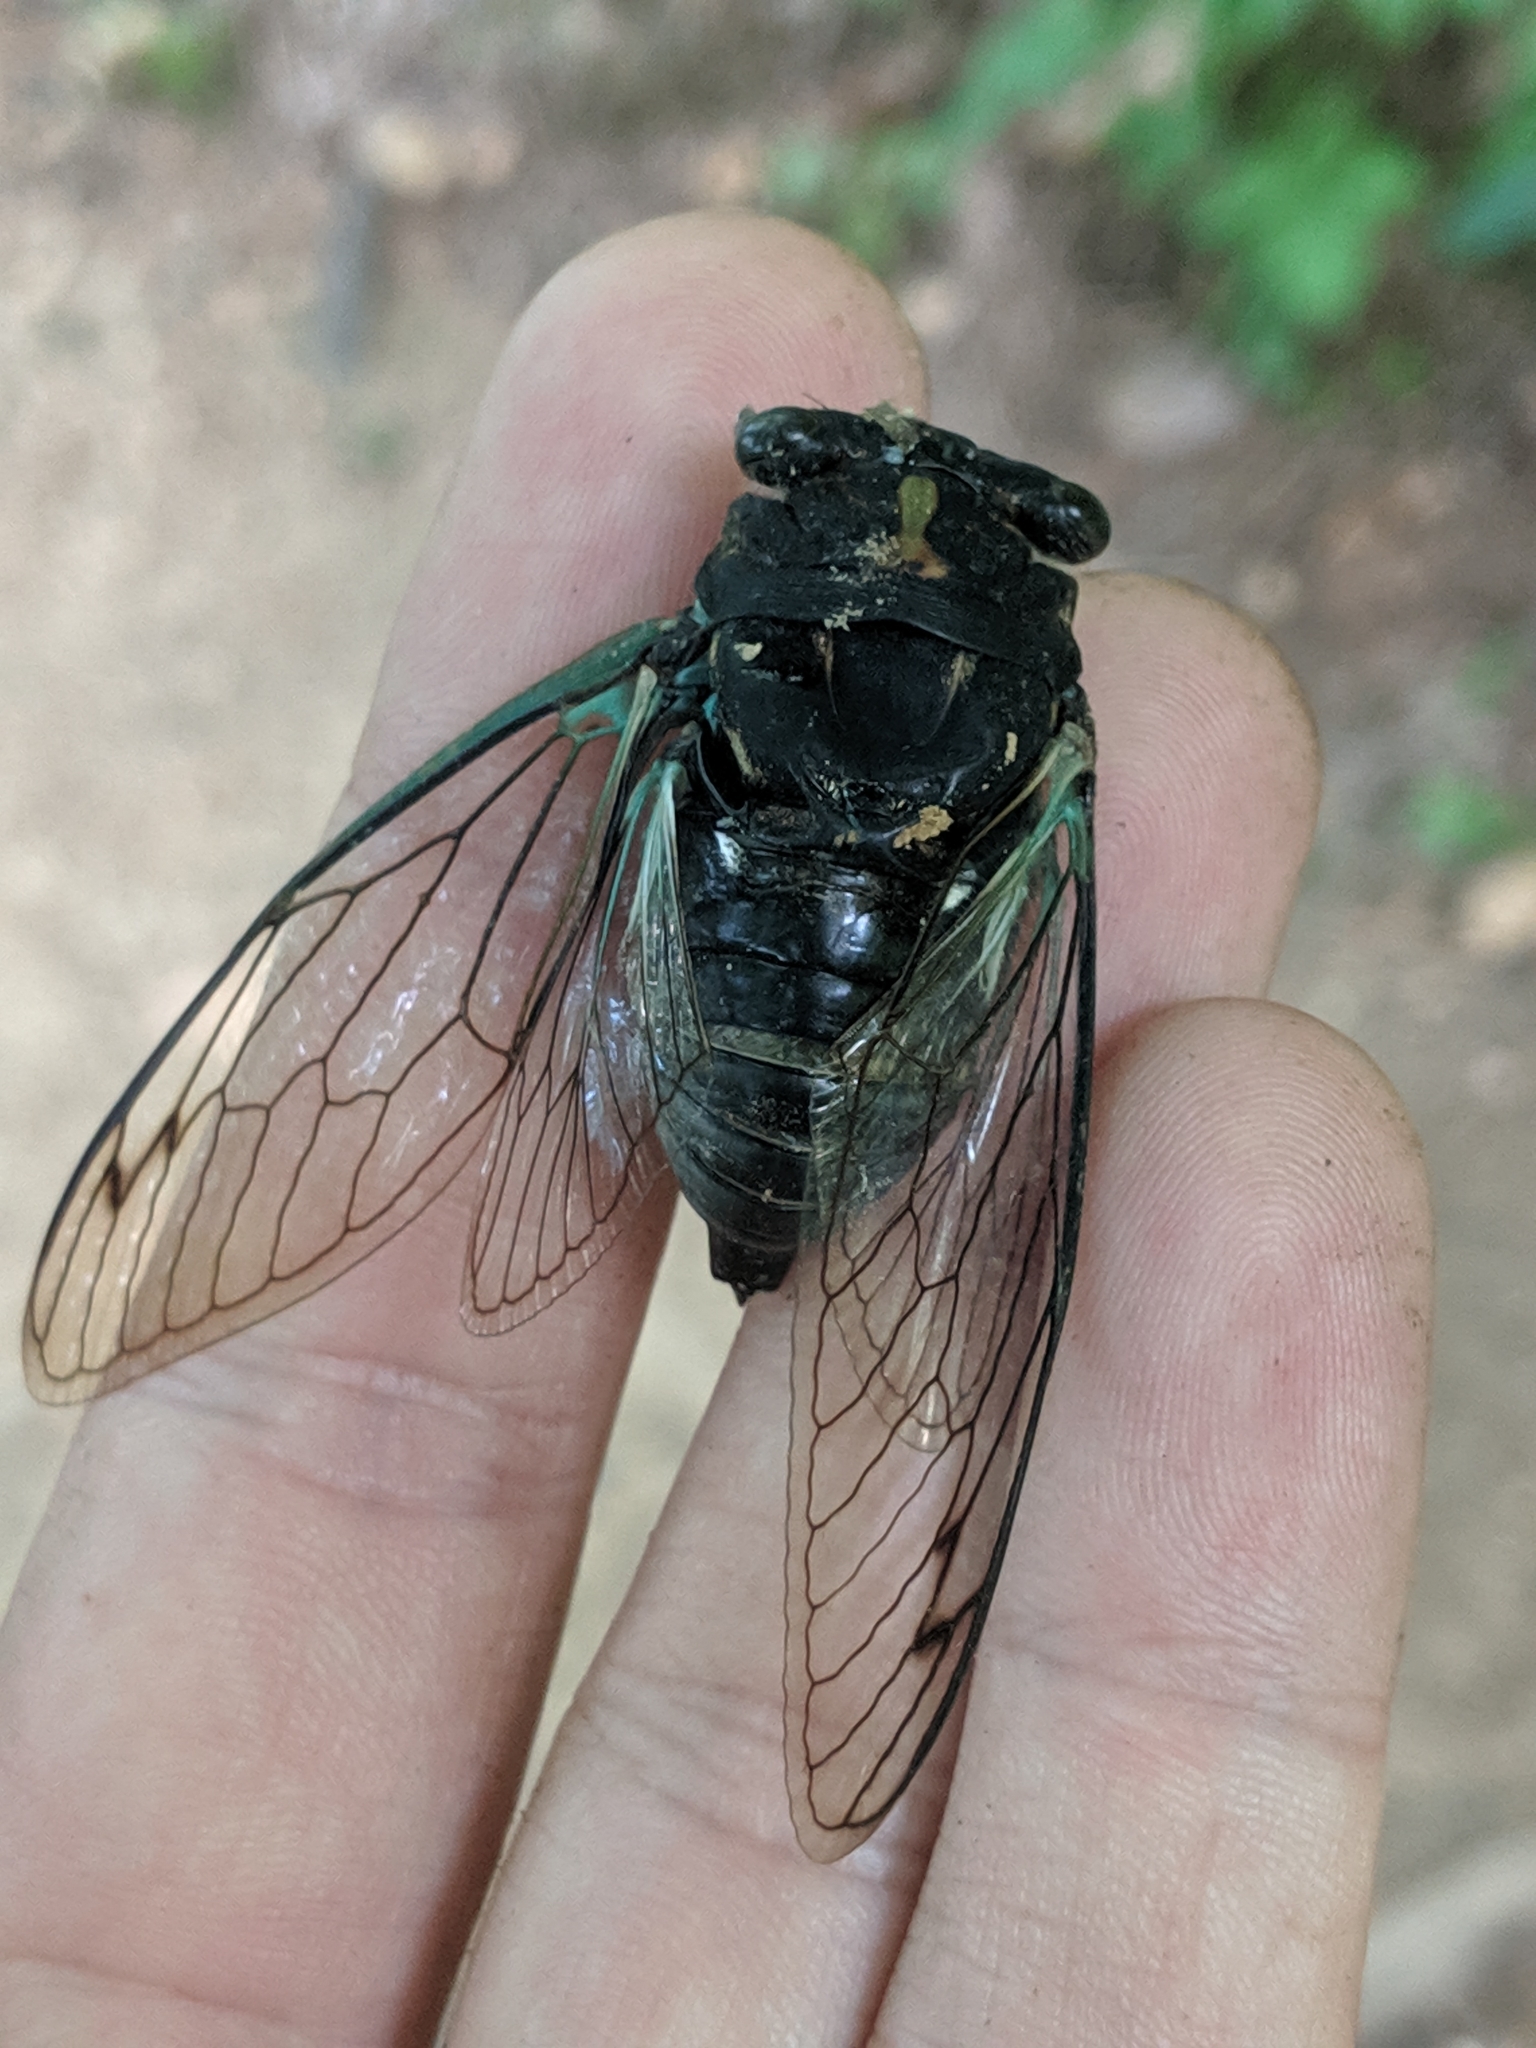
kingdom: Animalia
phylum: Arthropoda
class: Insecta
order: Hemiptera
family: Cicadidae
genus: Neotibicen
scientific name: Neotibicen lyricen
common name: Lyric cicada
